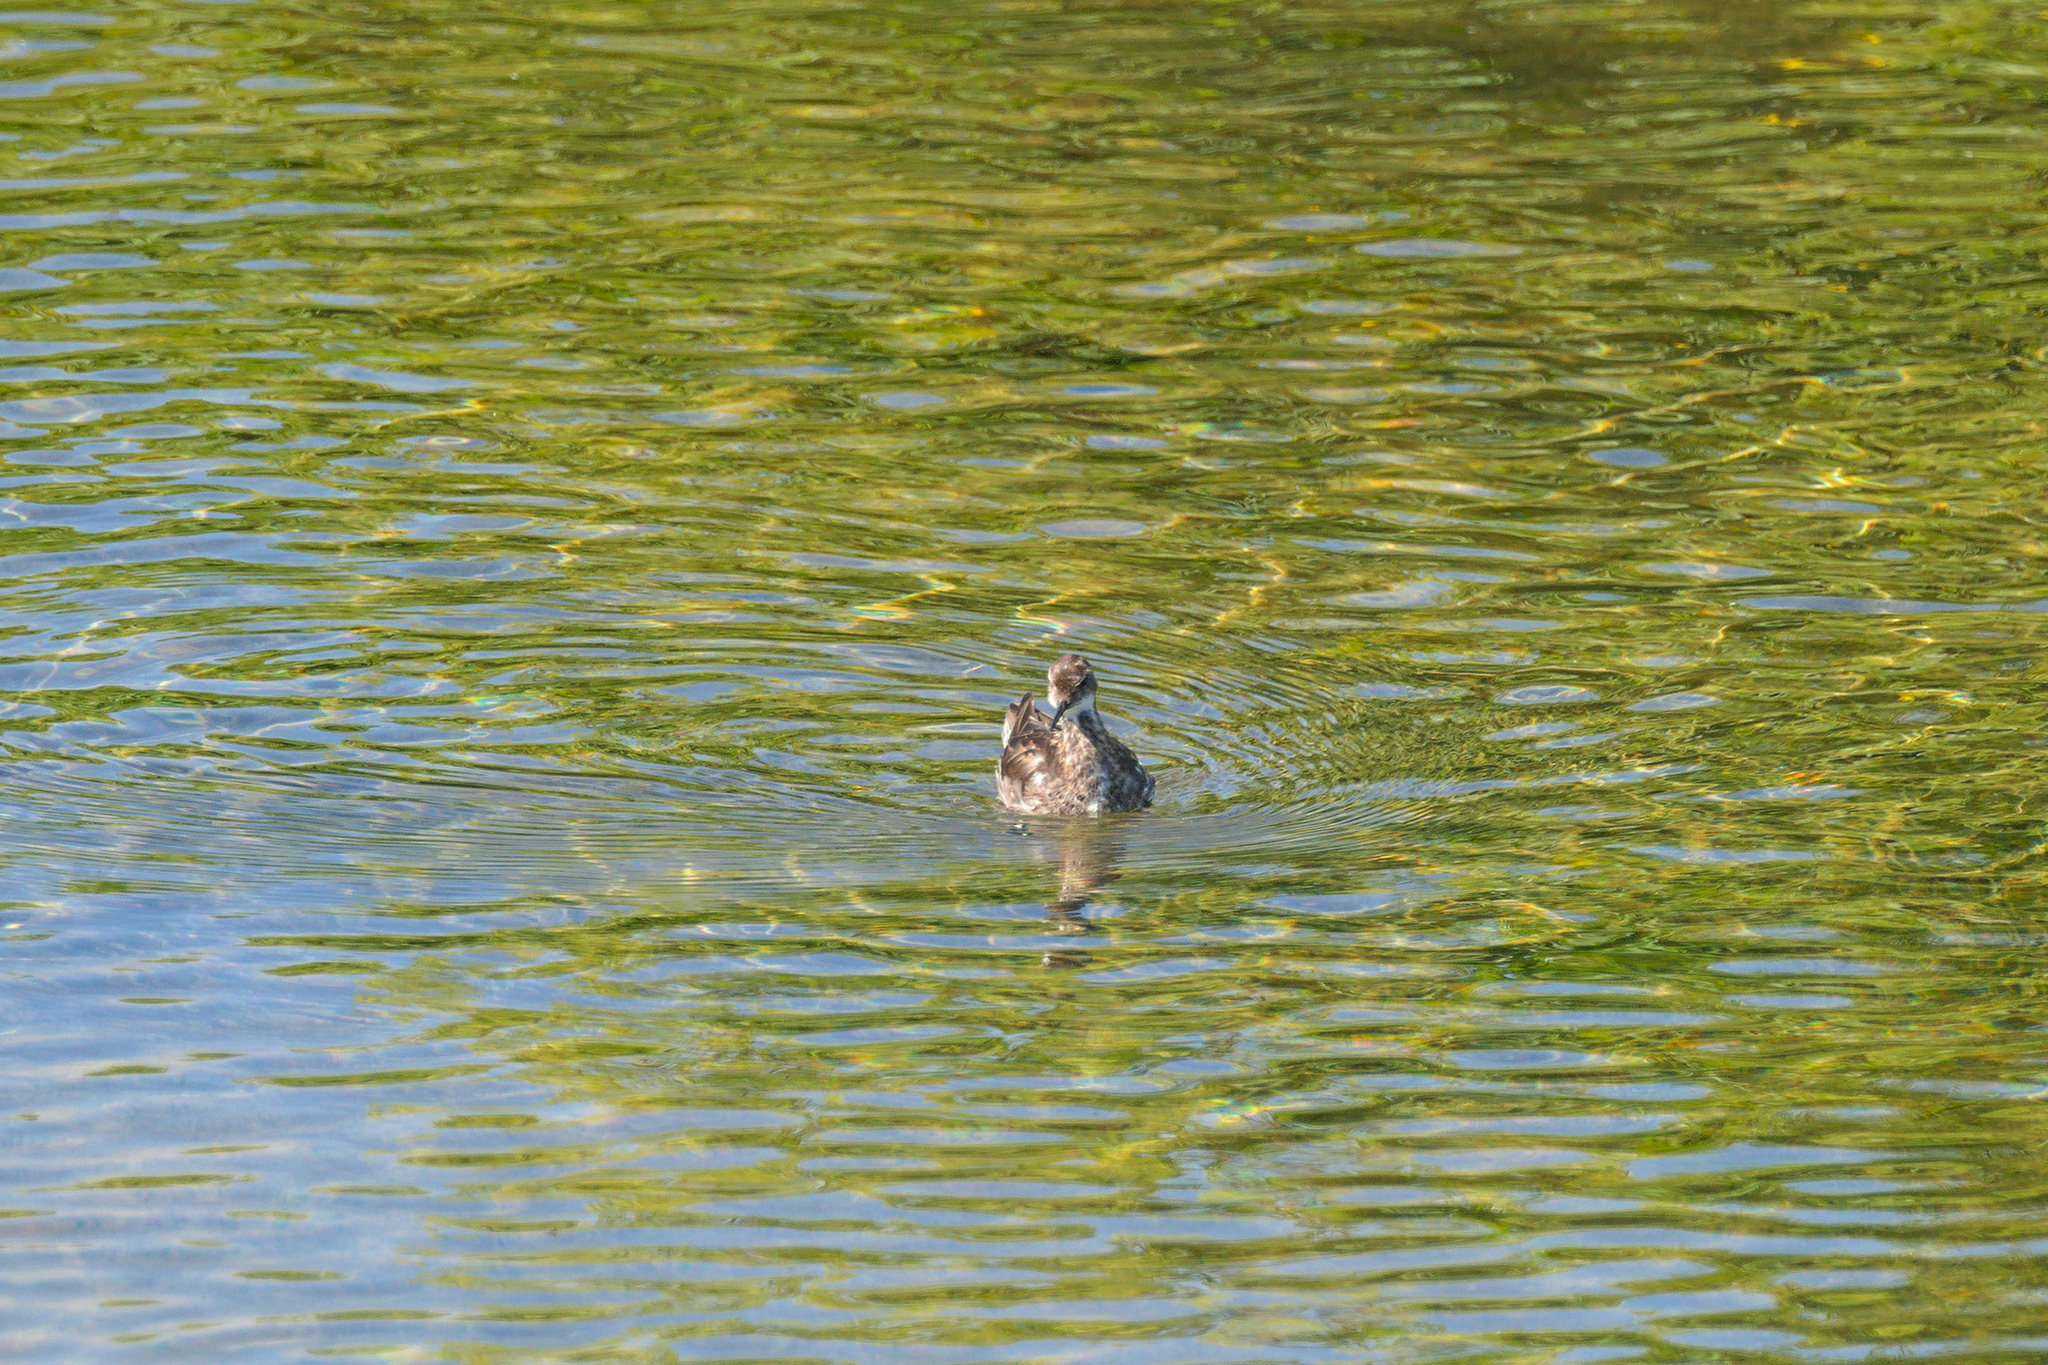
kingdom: Animalia
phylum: Chordata
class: Aves
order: Charadriiformes
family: Scolopacidae
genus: Phalaropus
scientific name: Phalaropus lobatus
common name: Red-necked phalarope
